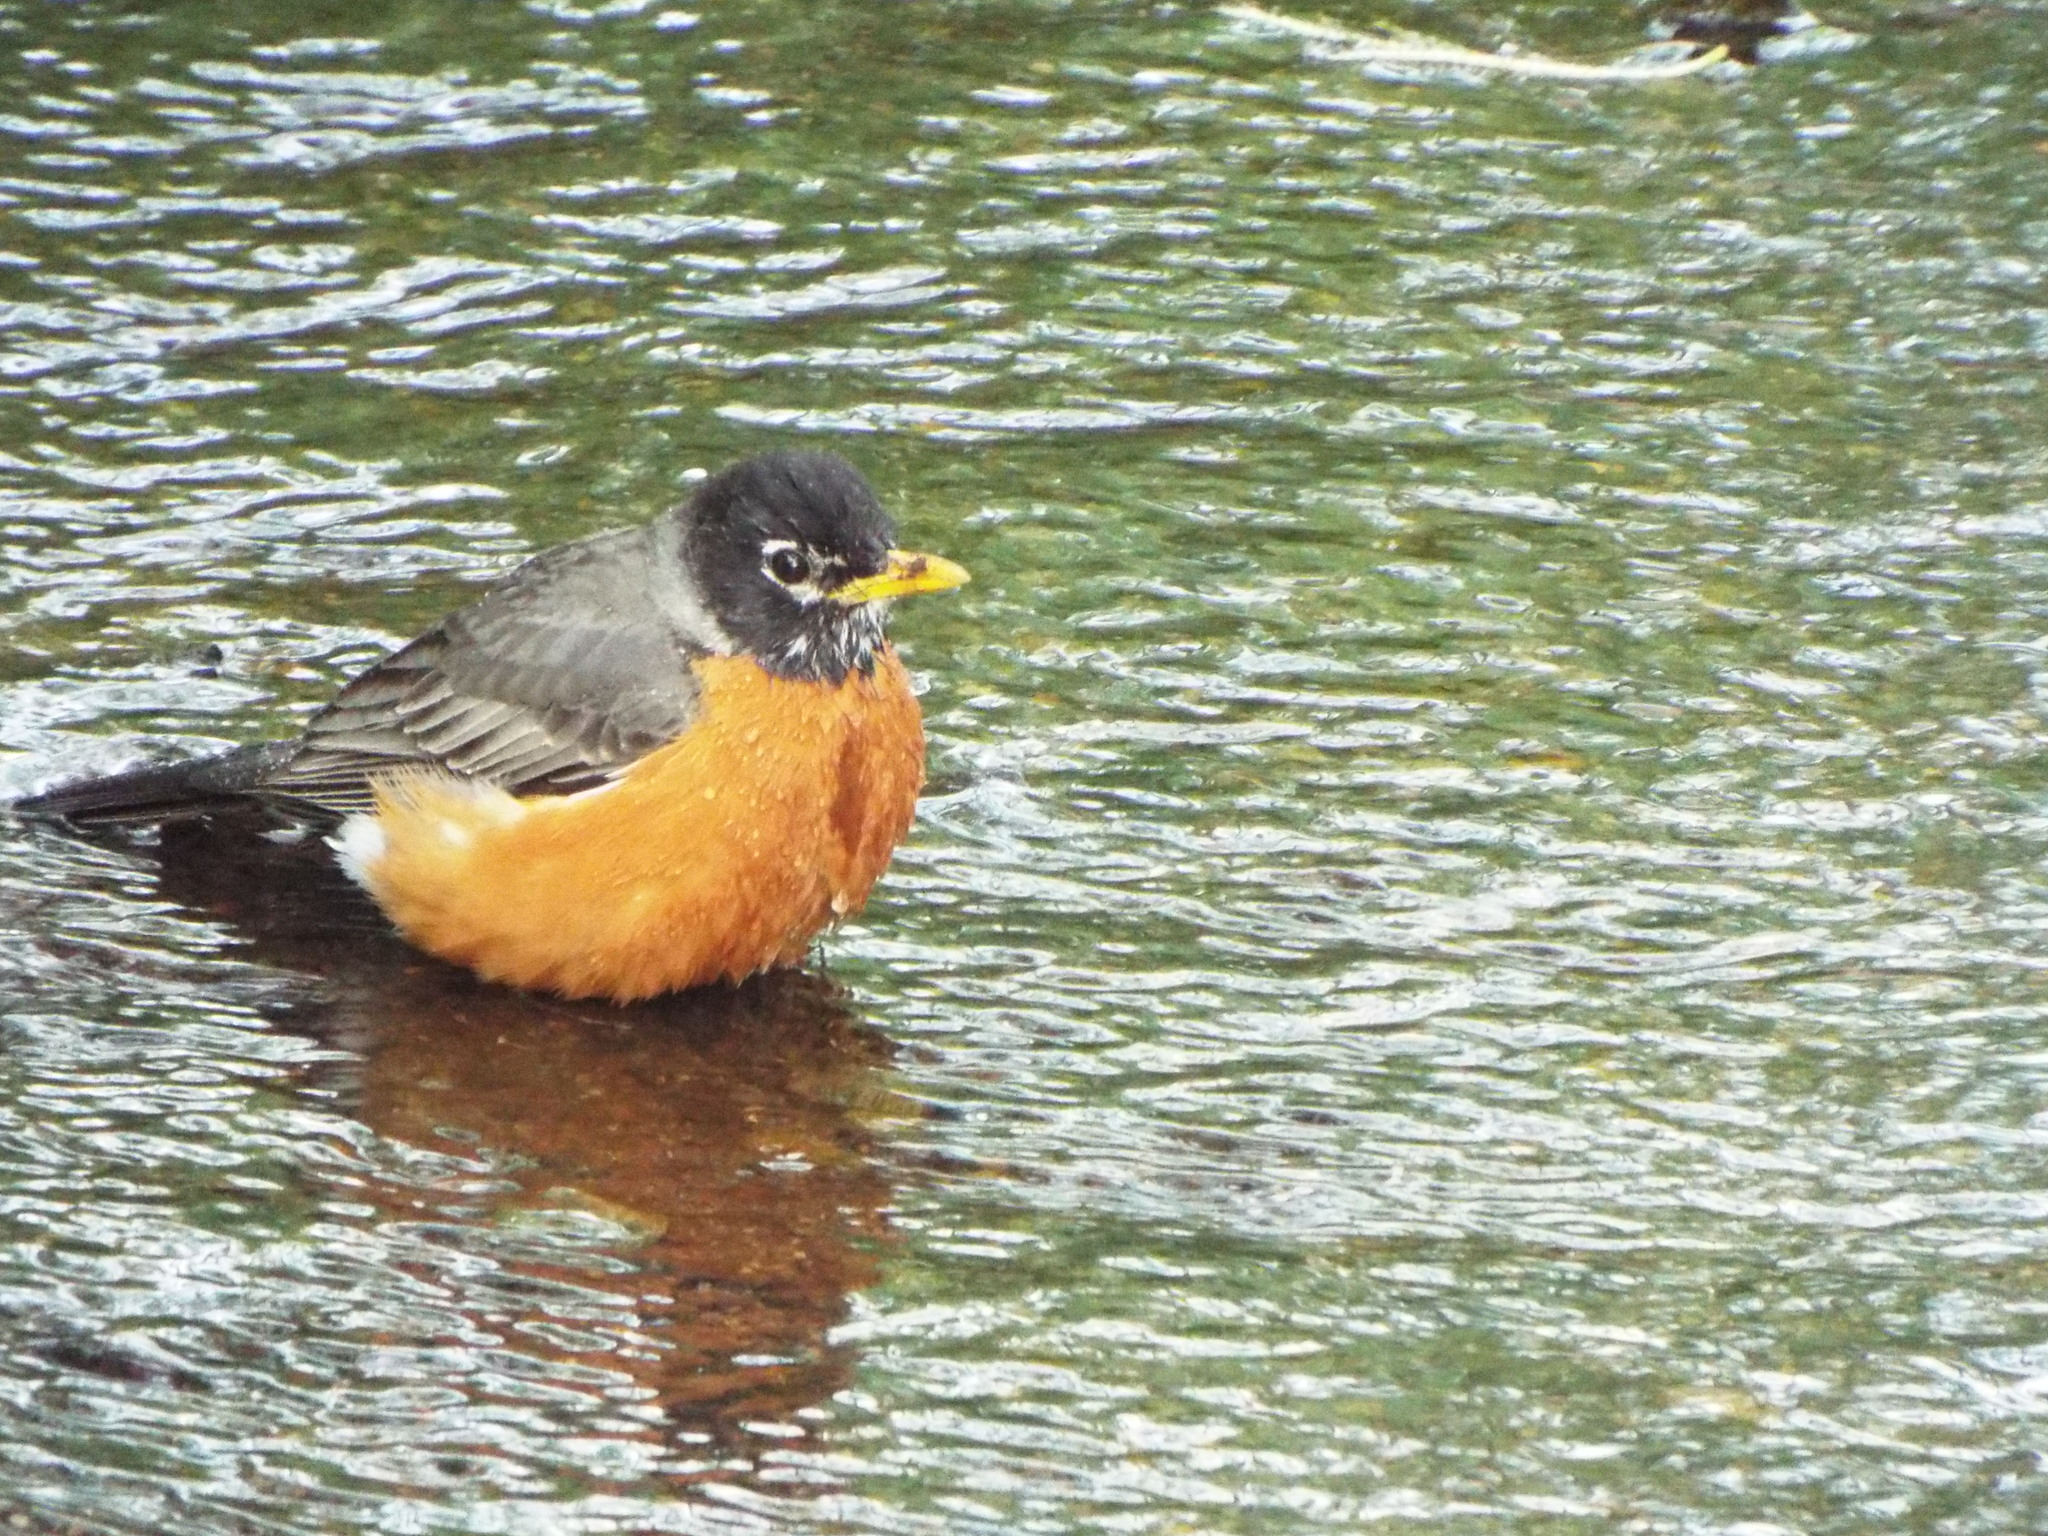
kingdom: Animalia
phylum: Chordata
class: Aves
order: Passeriformes
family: Turdidae
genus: Turdus
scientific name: Turdus migratorius
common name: American robin
